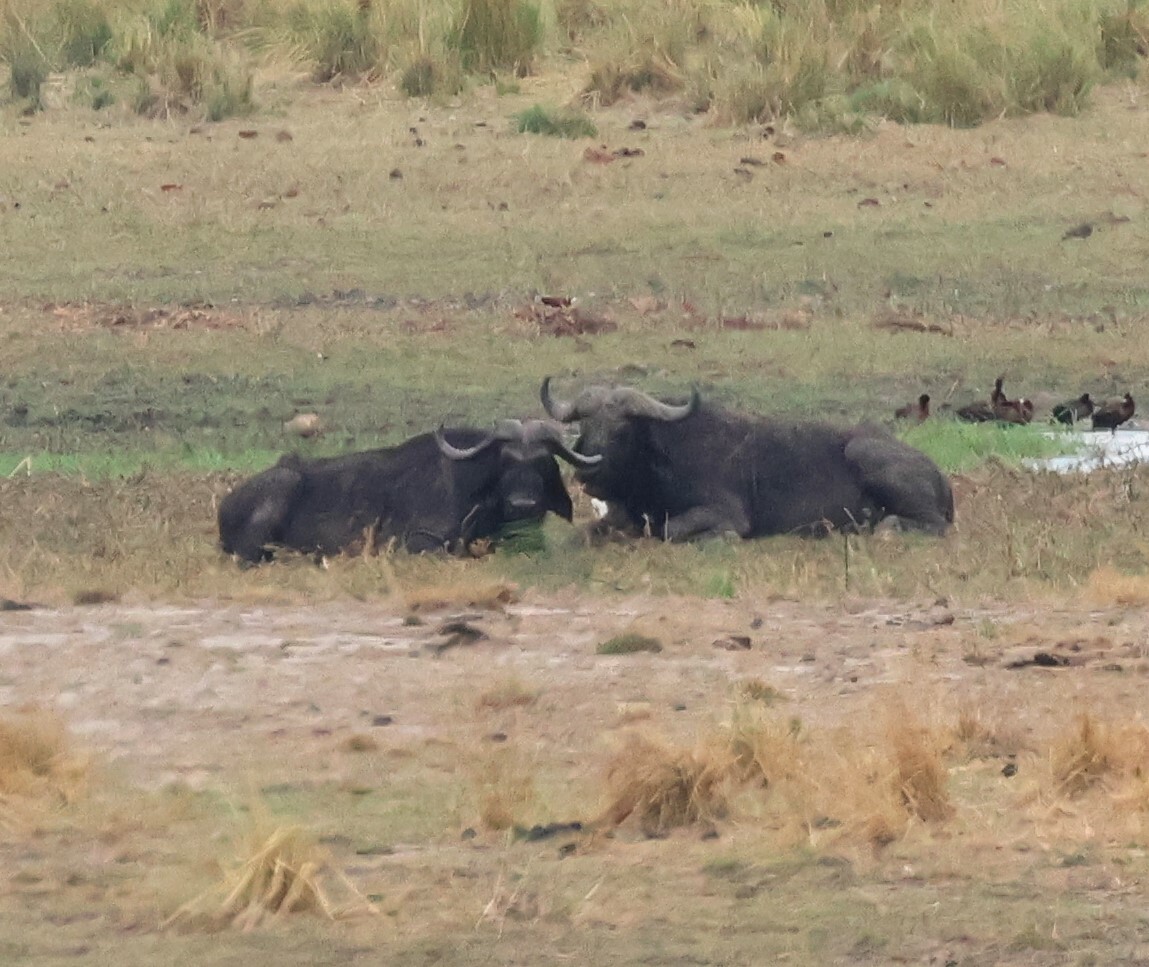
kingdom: Animalia
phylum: Chordata
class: Mammalia
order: Artiodactyla
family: Bovidae
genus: Syncerus
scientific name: Syncerus caffer
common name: African buffalo
